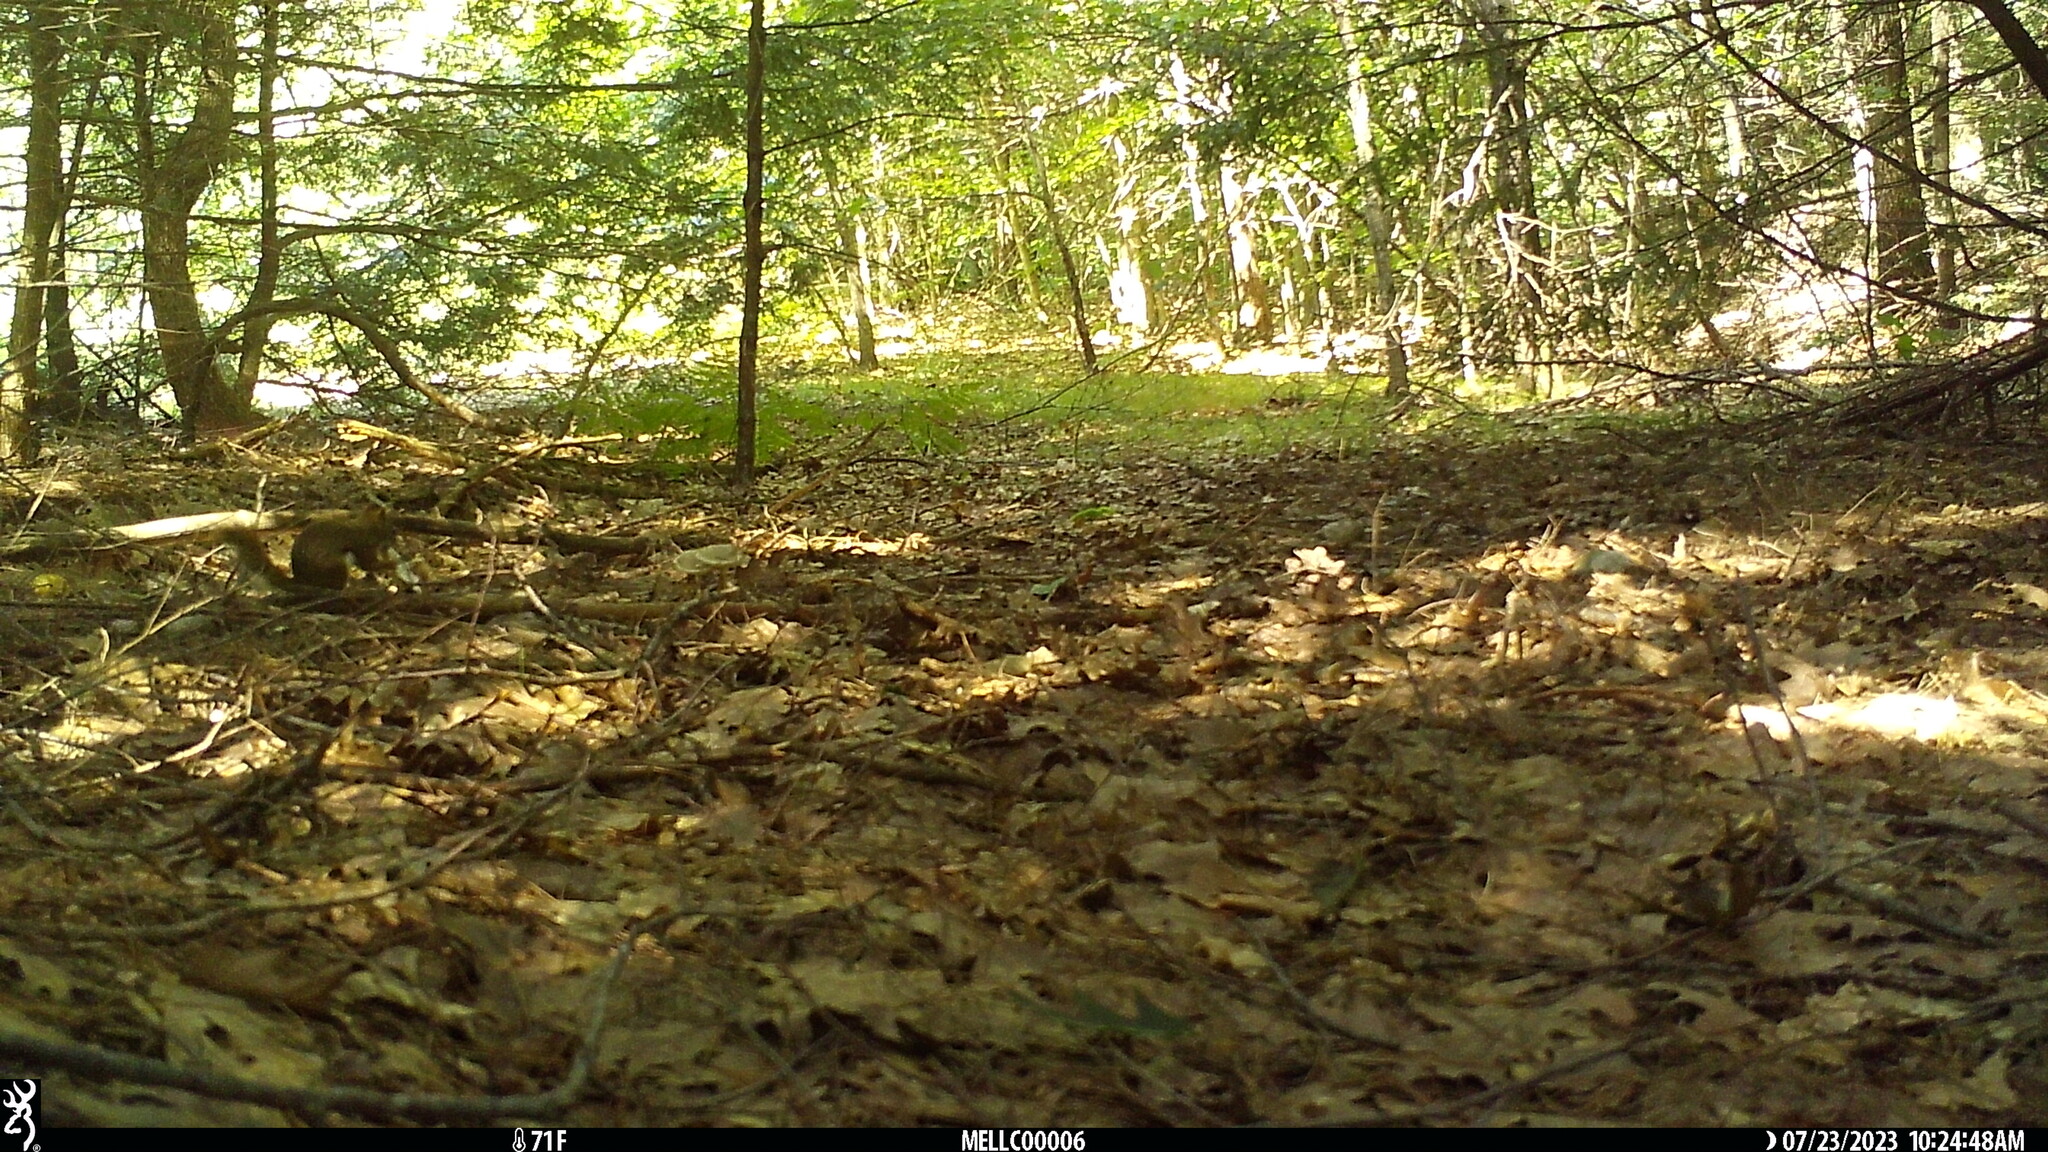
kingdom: Animalia
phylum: Chordata
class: Mammalia
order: Rodentia
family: Sciuridae
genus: Tamiasciurus
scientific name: Tamiasciurus hudsonicus
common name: Red squirrel
